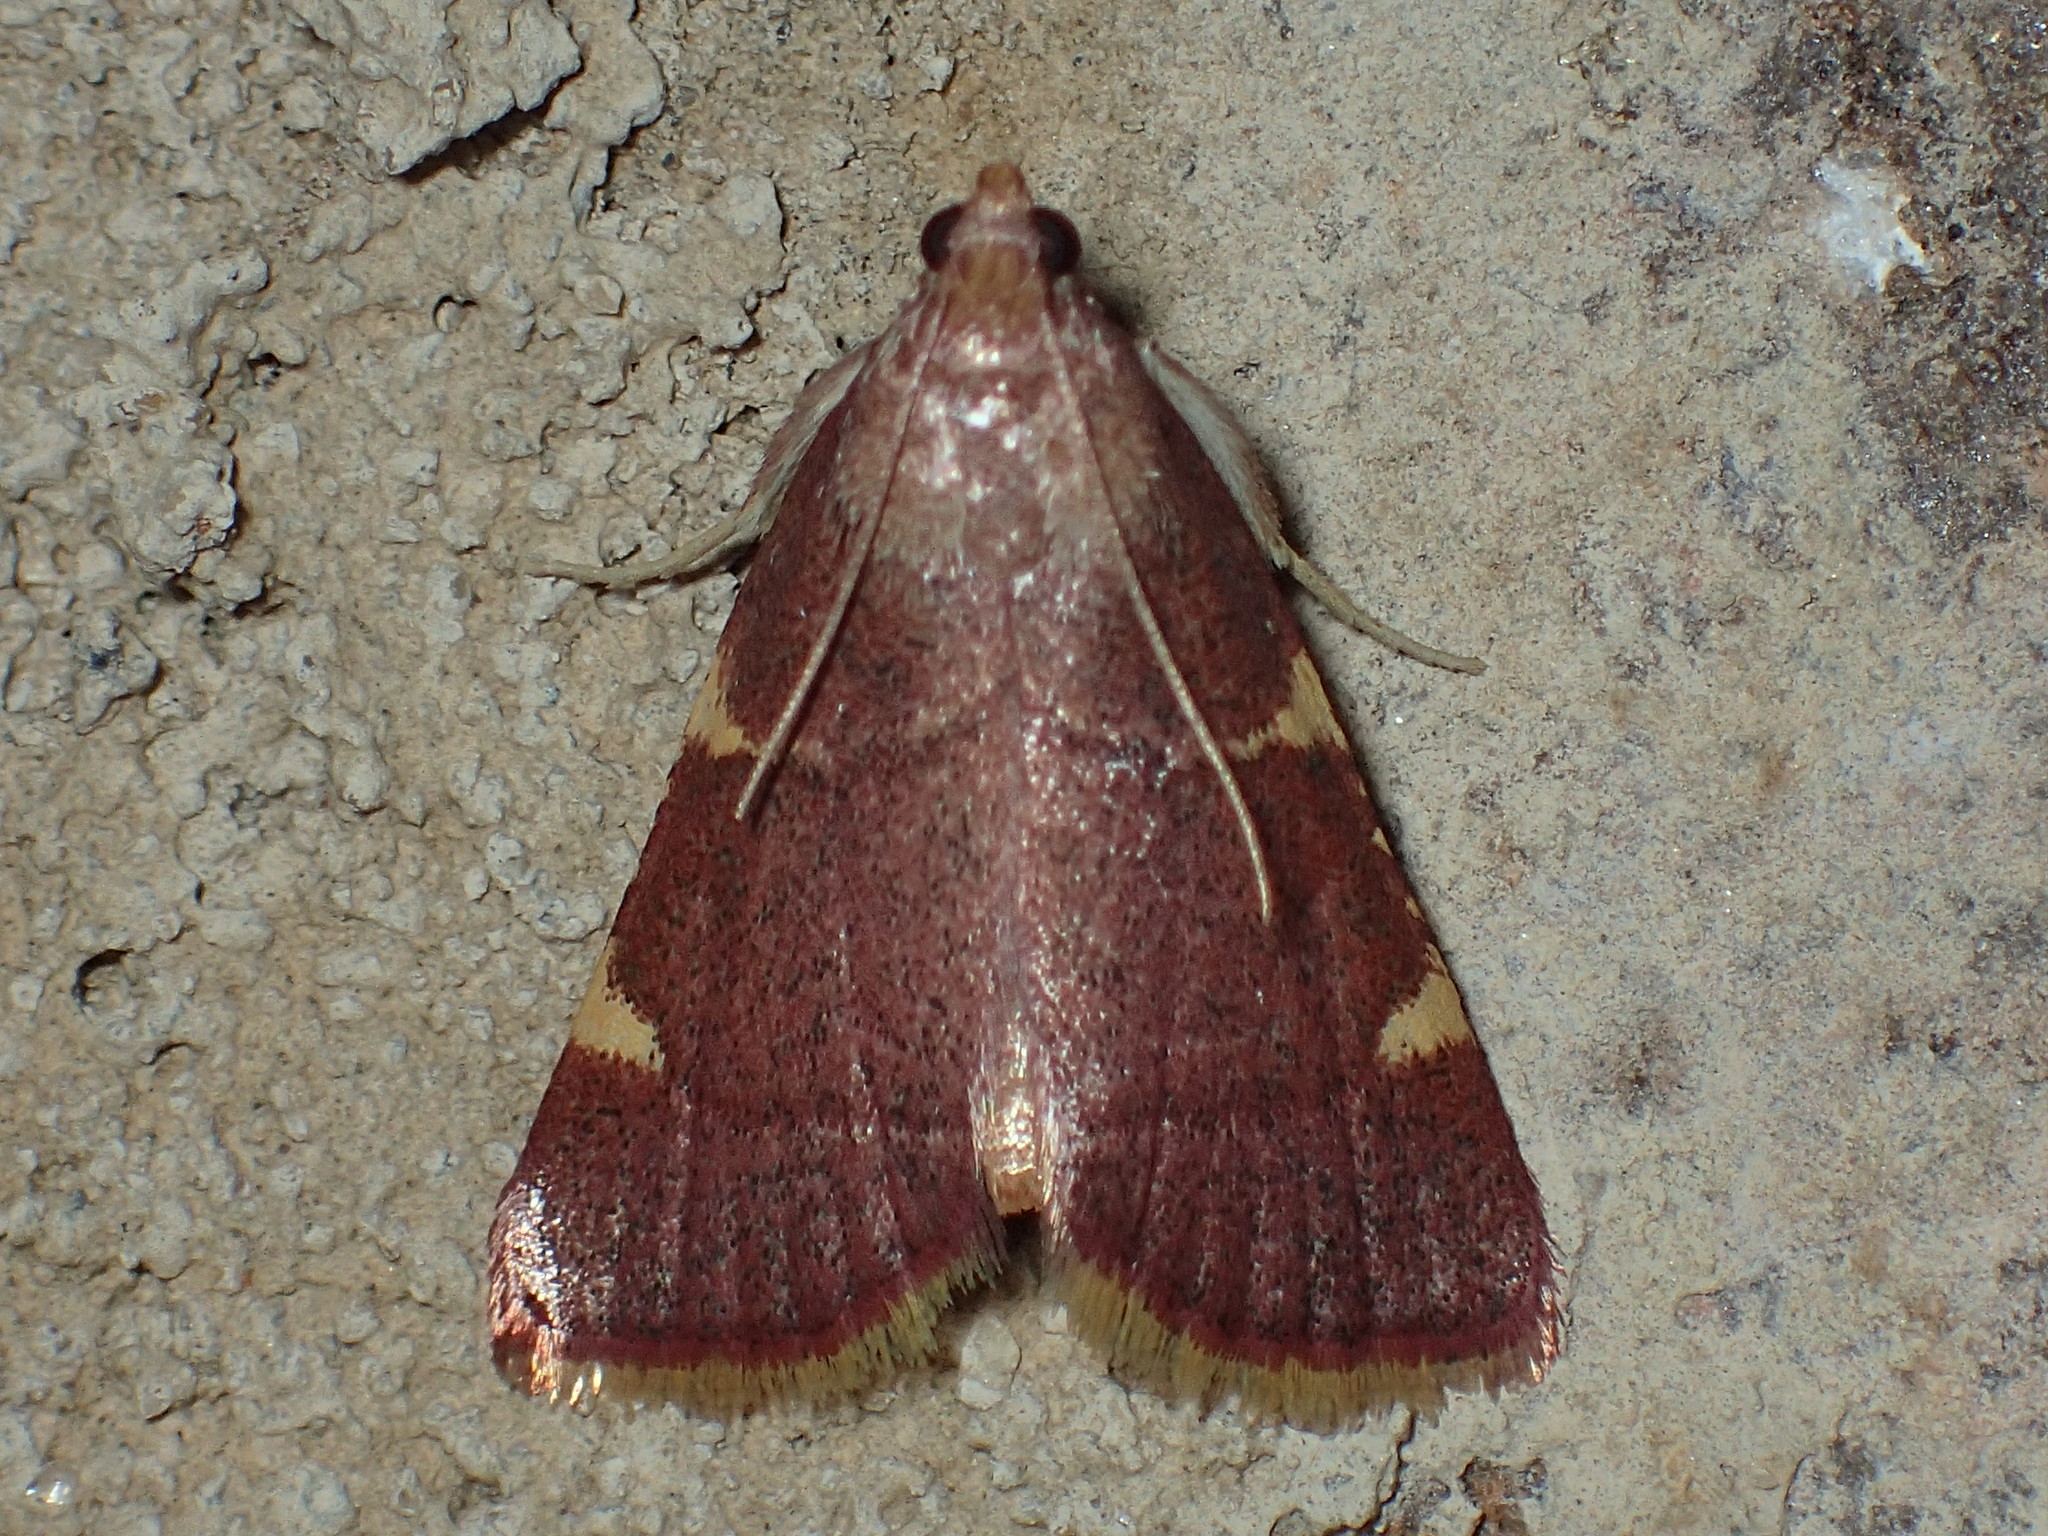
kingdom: Animalia
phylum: Arthropoda
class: Insecta
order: Lepidoptera
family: Pyralidae
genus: Hypsopygia
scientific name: Hypsopygia olinalis
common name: Yellow-fringed dolichomia moth
